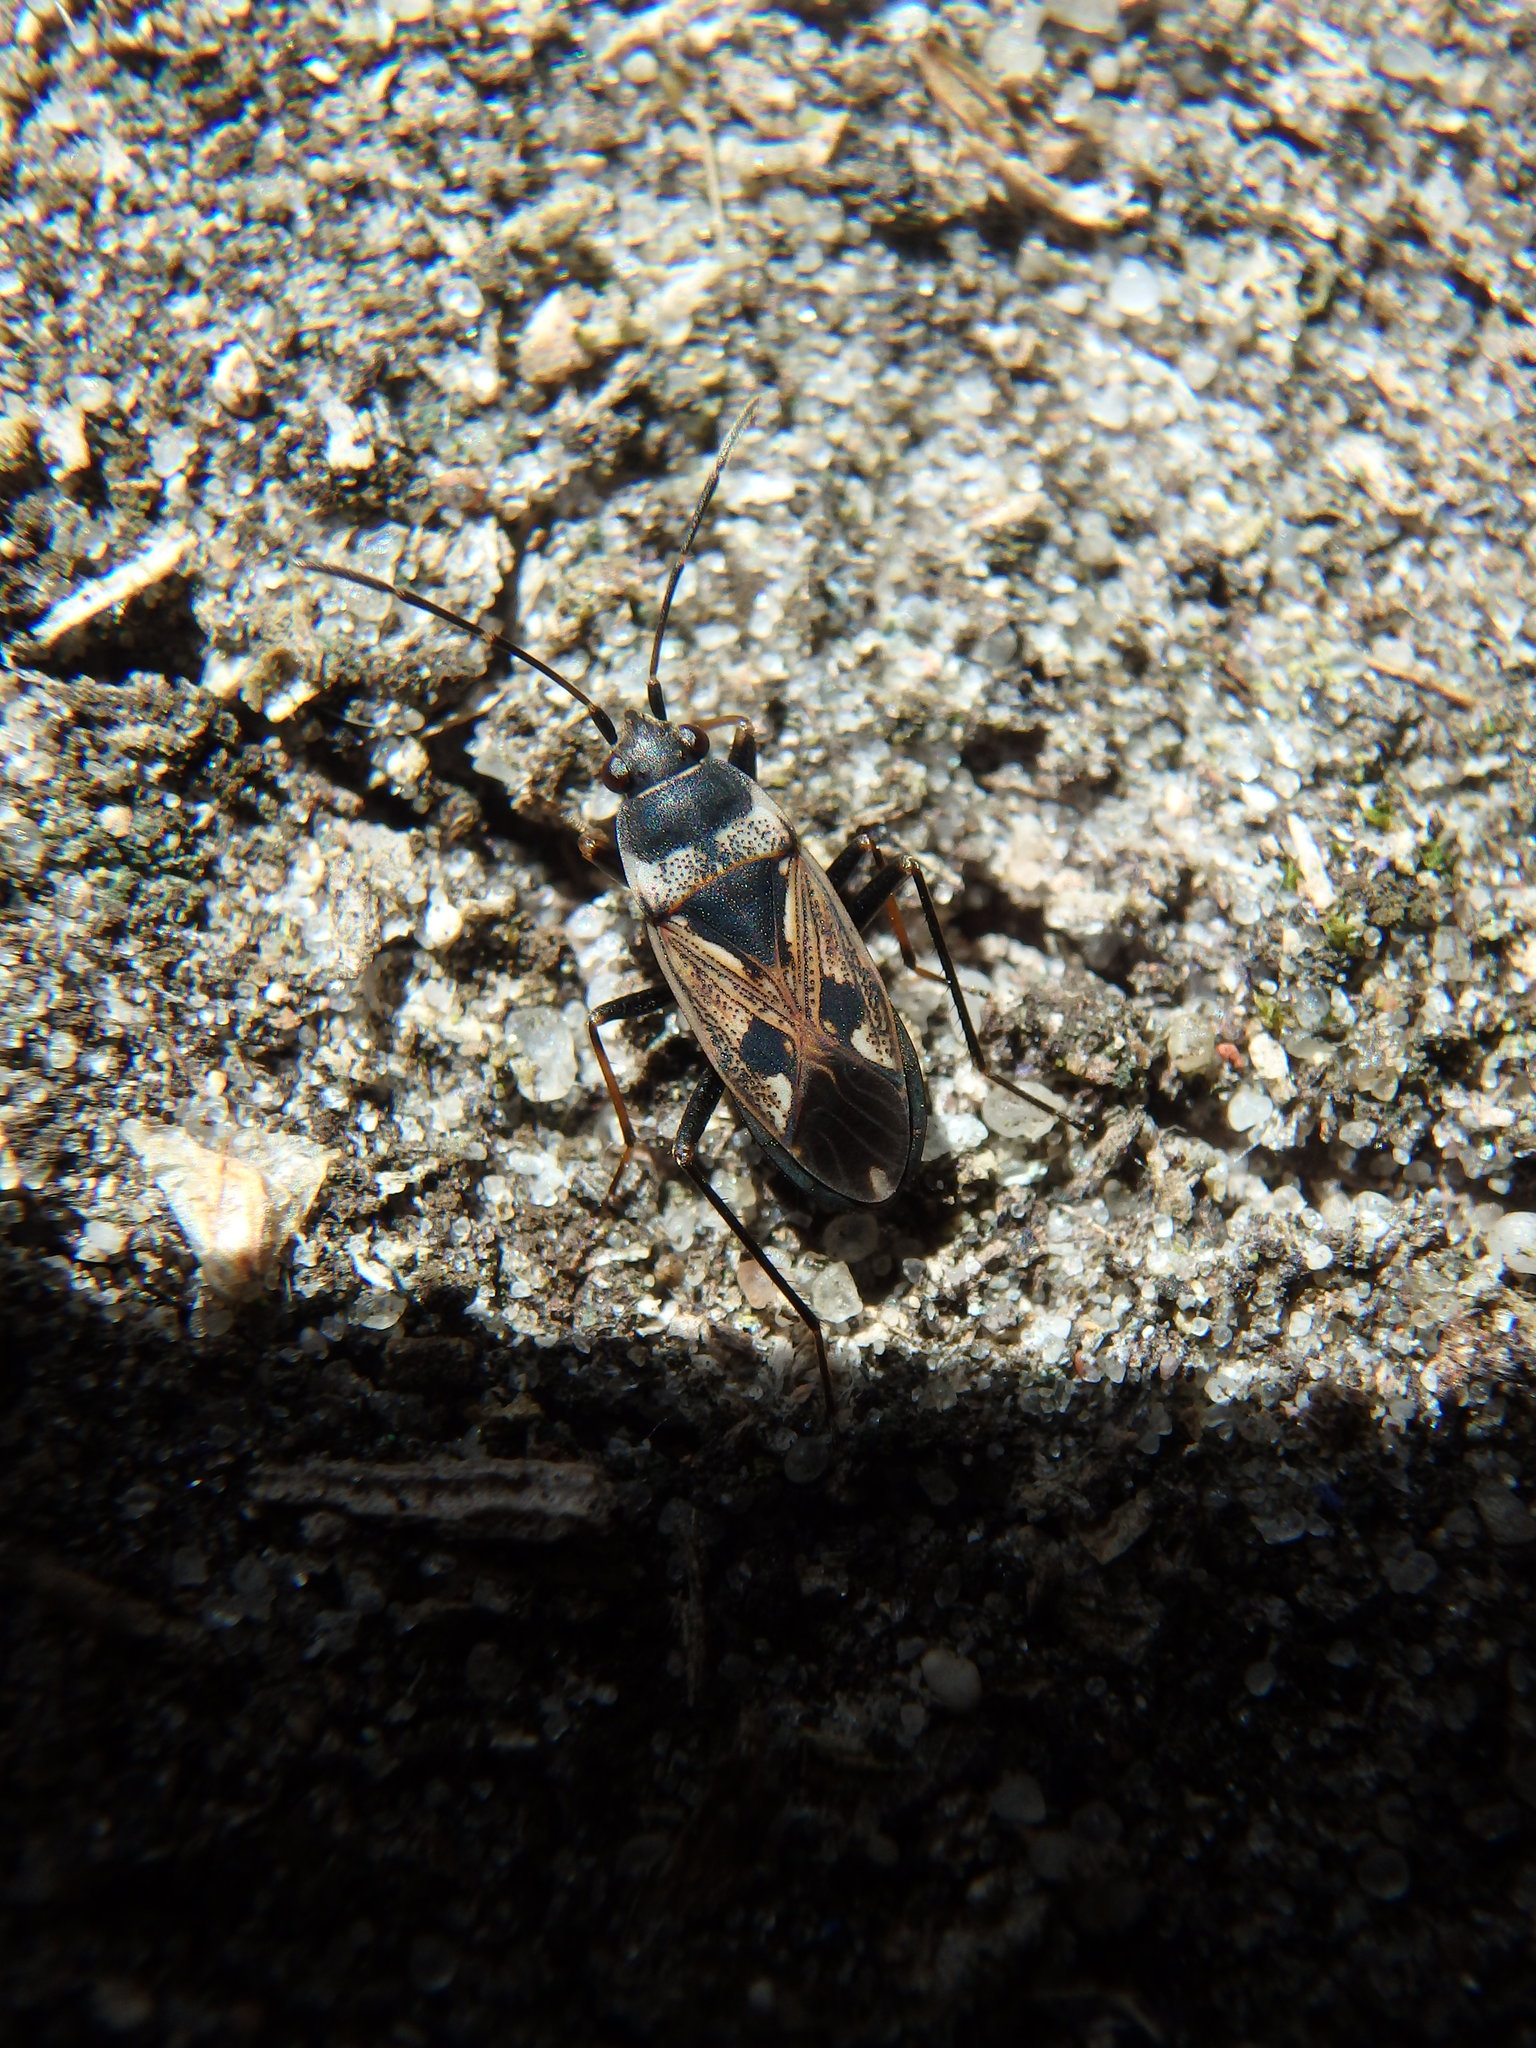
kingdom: Animalia
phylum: Arthropoda
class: Insecta
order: Hemiptera
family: Rhyparochromidae
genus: Rhyparochromus
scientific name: Rhyparochromus vulgaris
